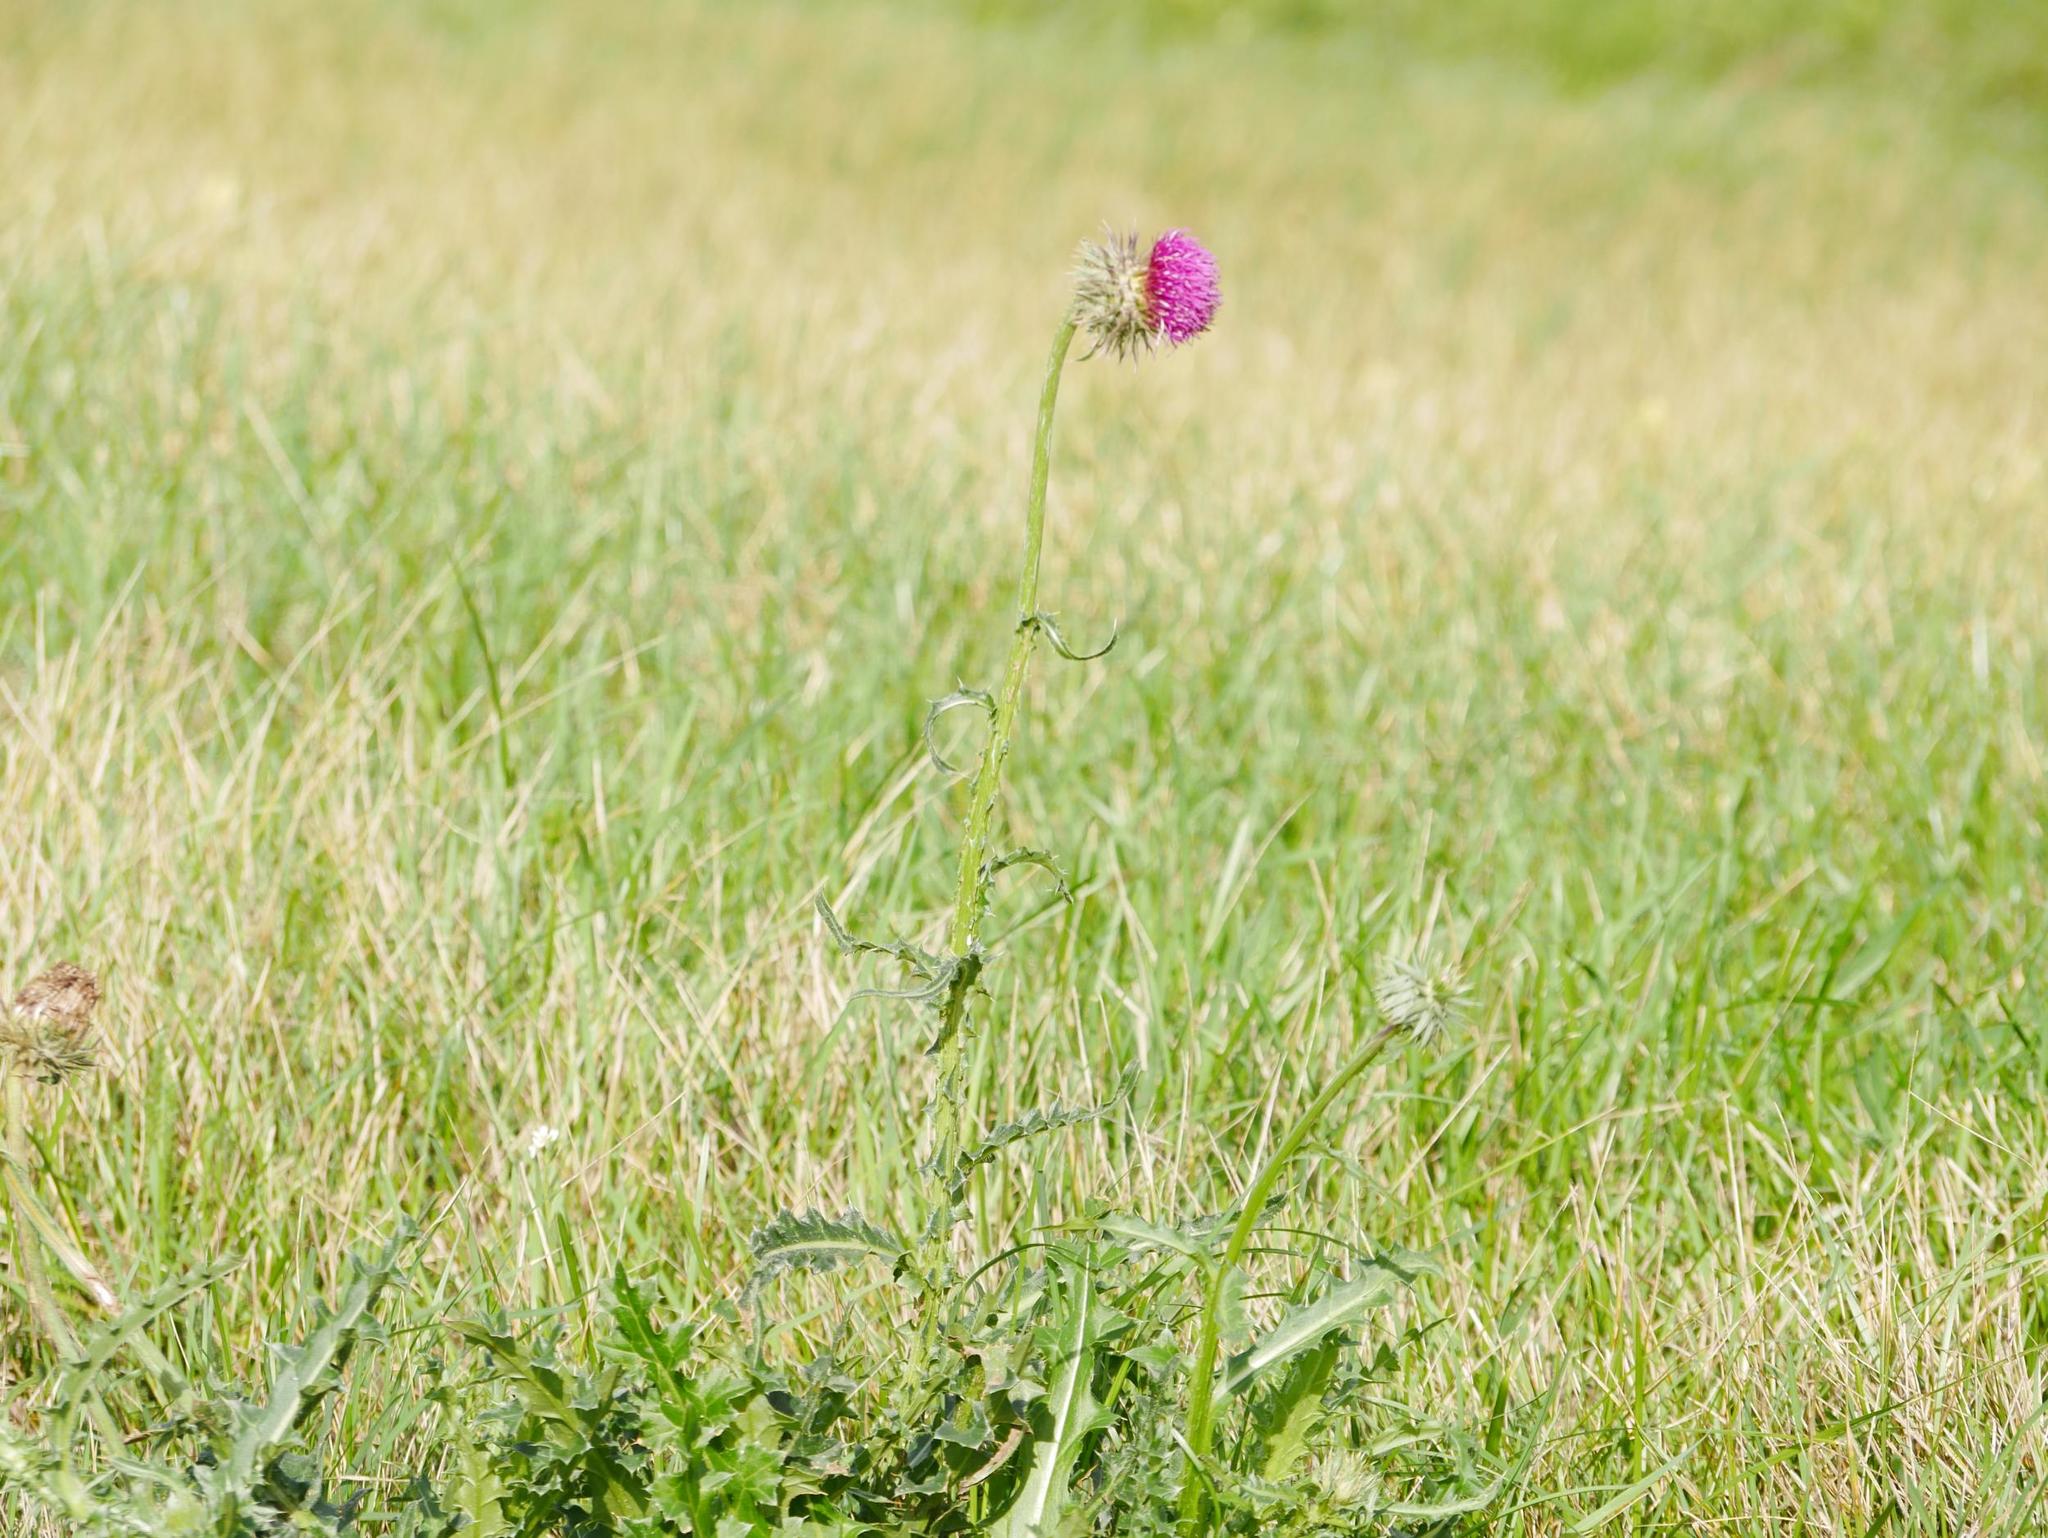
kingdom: Plantae
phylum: Tracheophyta
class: Magnoliopsida
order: Asterales
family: Asteraceae
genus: Carduus
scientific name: Carduus nutans
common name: Musk thistle
